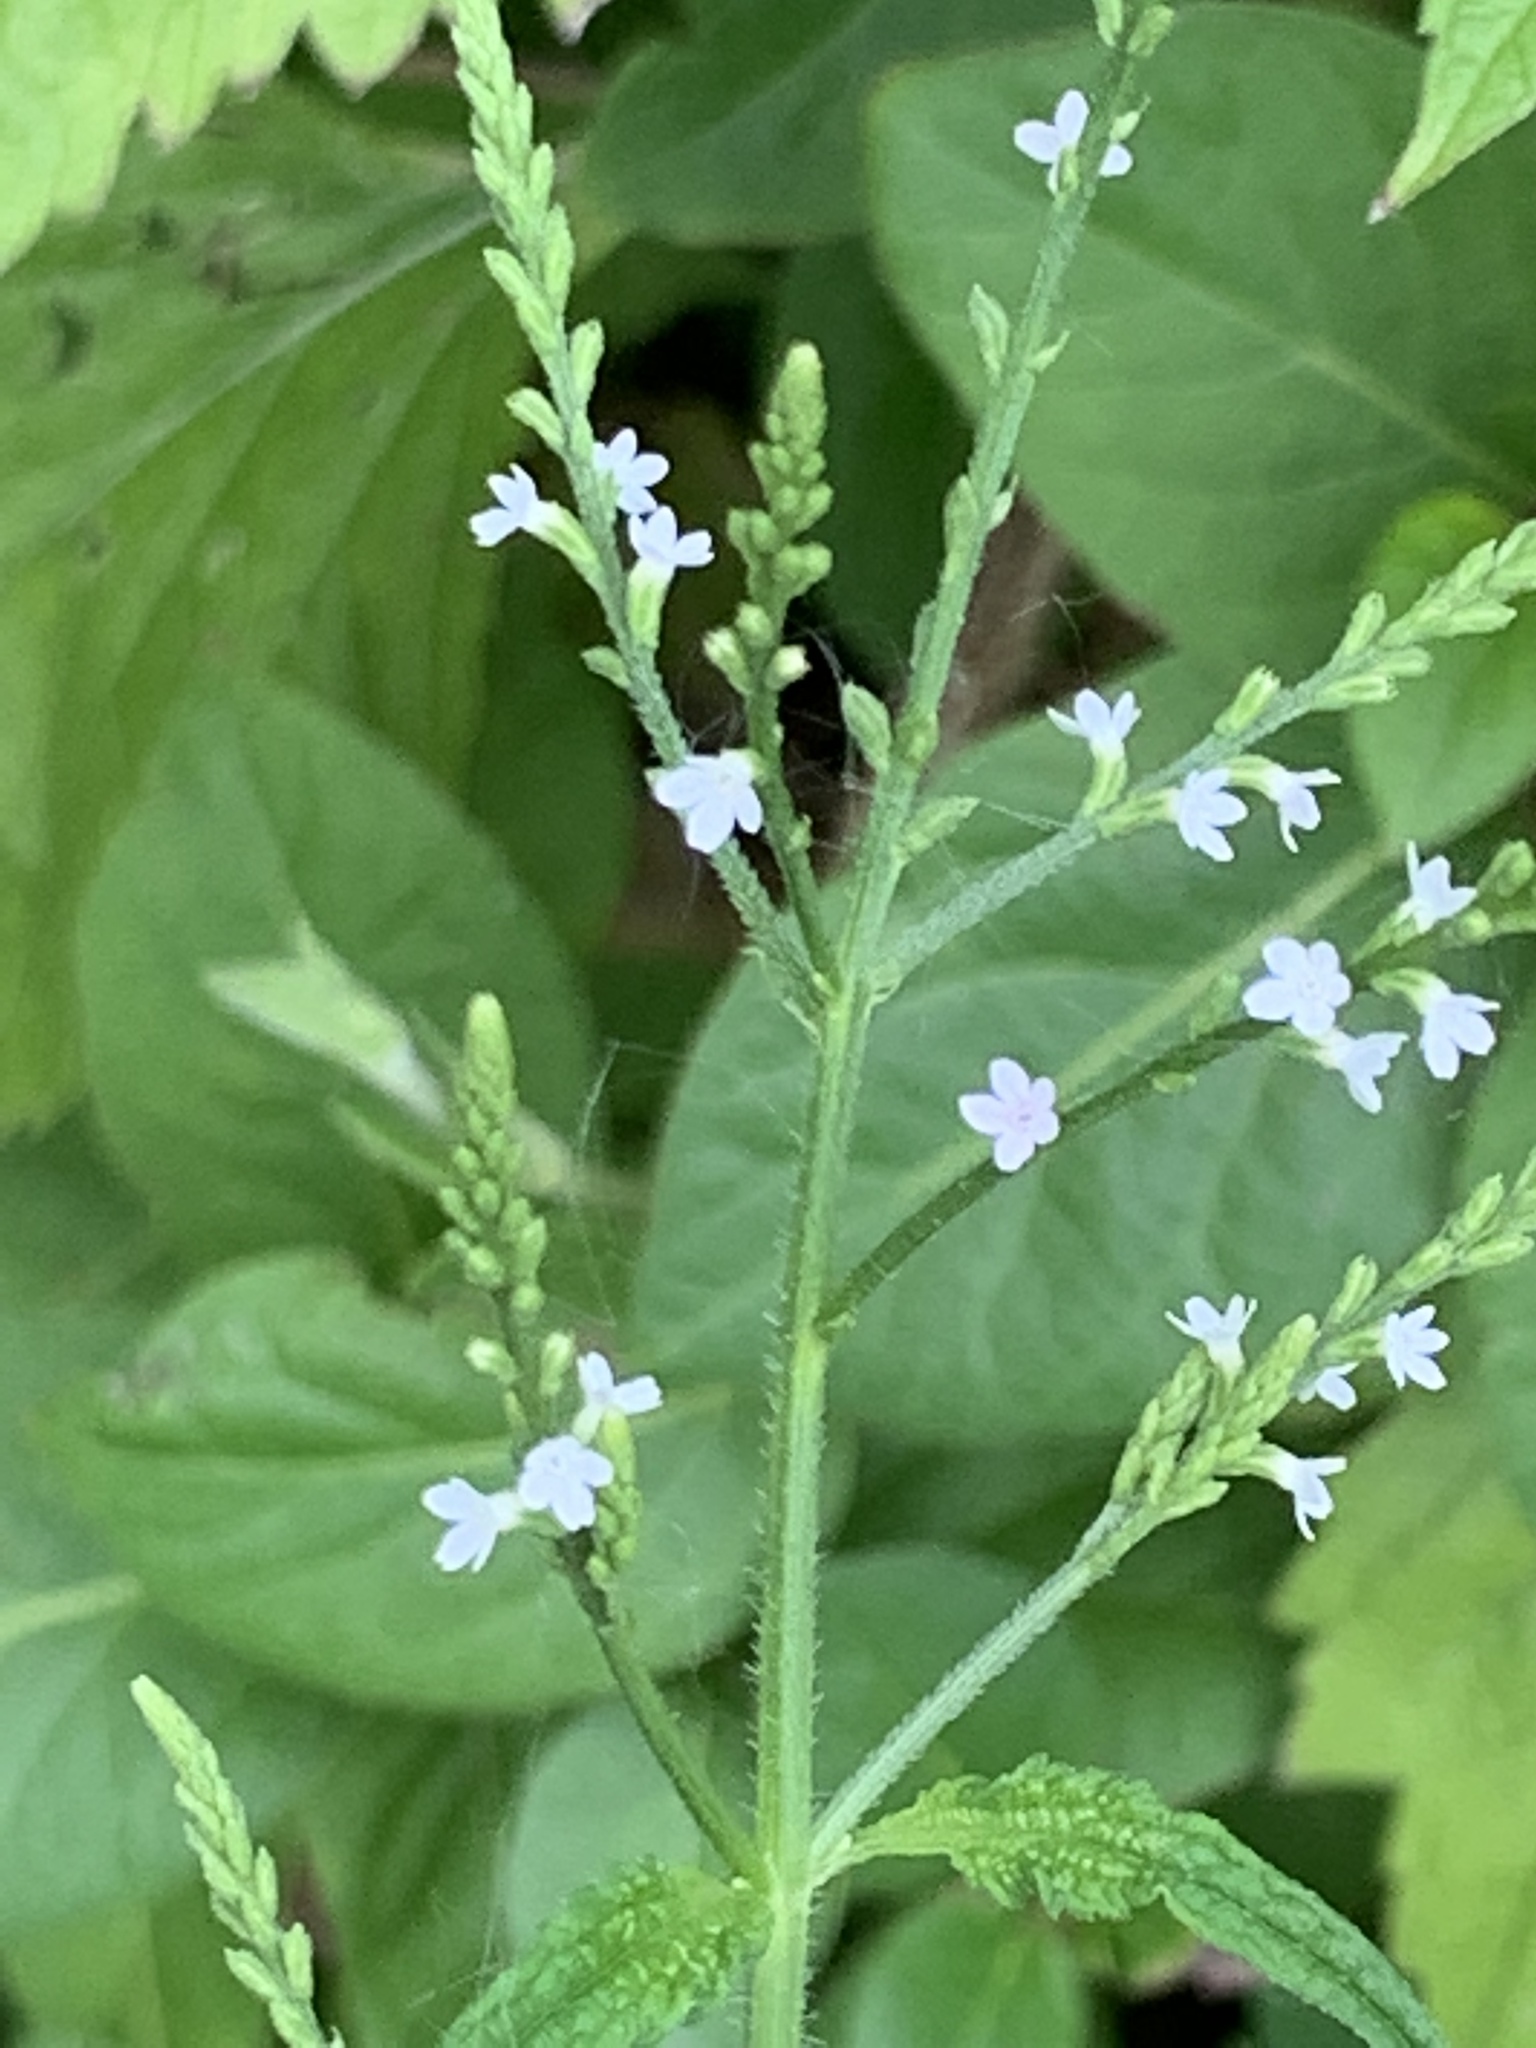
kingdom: Plantae
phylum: Tracheophyta
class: Magnoliopsida
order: Lamiales
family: Verbenaceae
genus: Verbena
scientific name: Verbena urticifolia
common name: Nettle-leaved vervain
